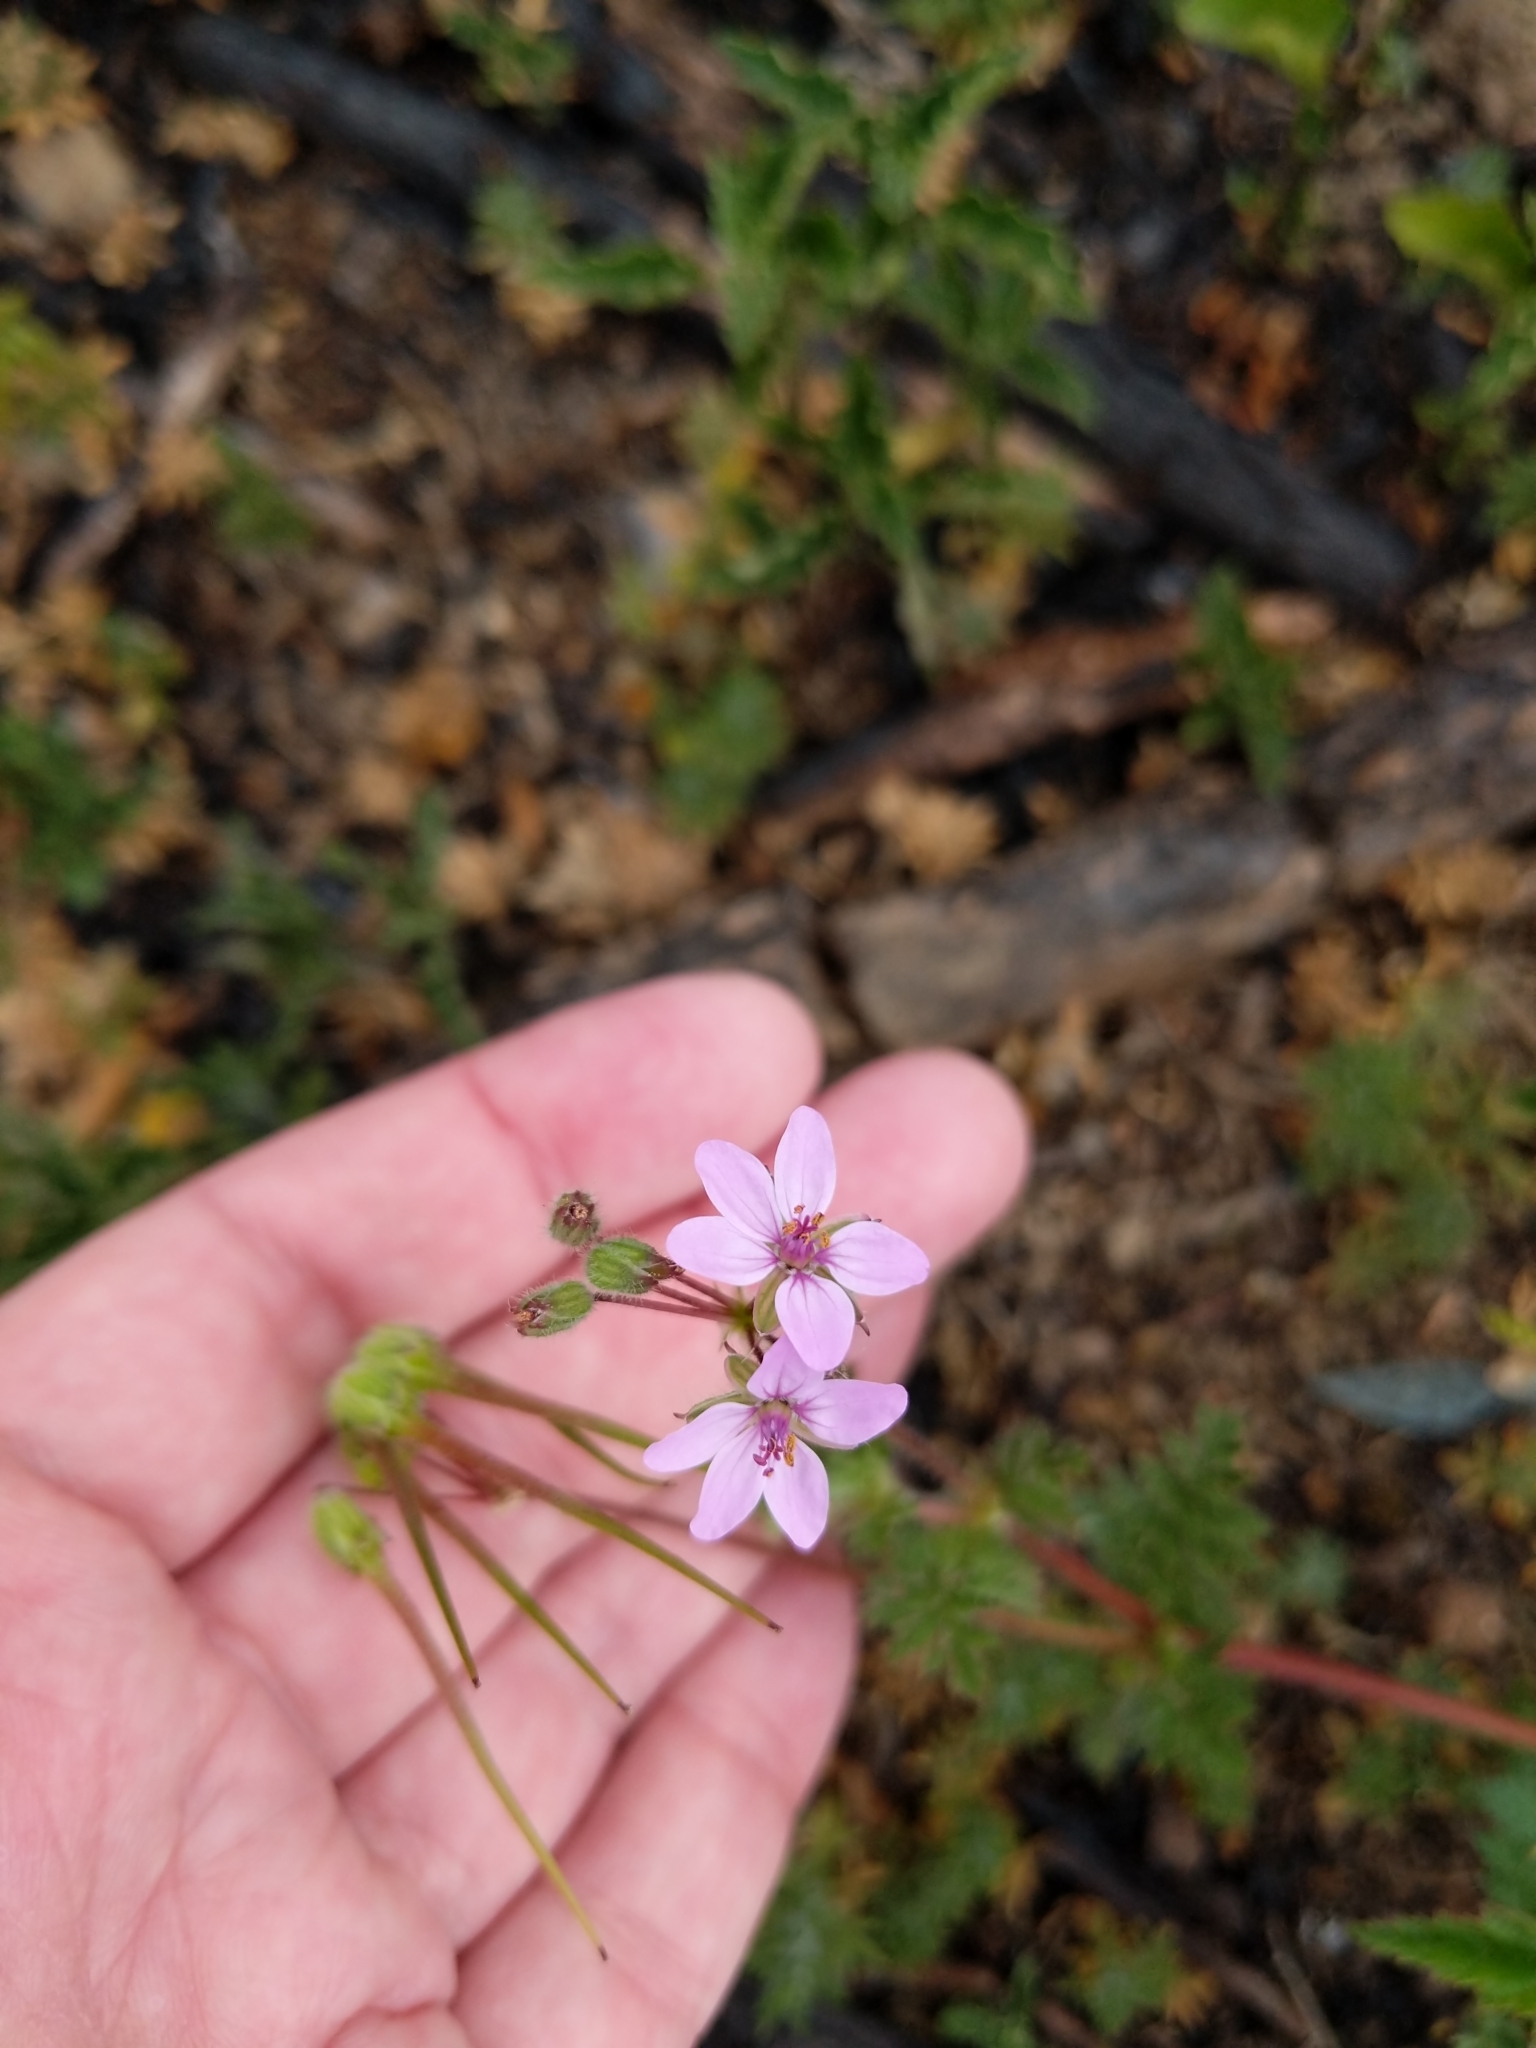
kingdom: Plantae
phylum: Tracheophyta
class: Magnoliopsida
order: Geraniales
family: Geraniaceae
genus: Erodium
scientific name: Erodium cicutarium
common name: Common stork's-bill
